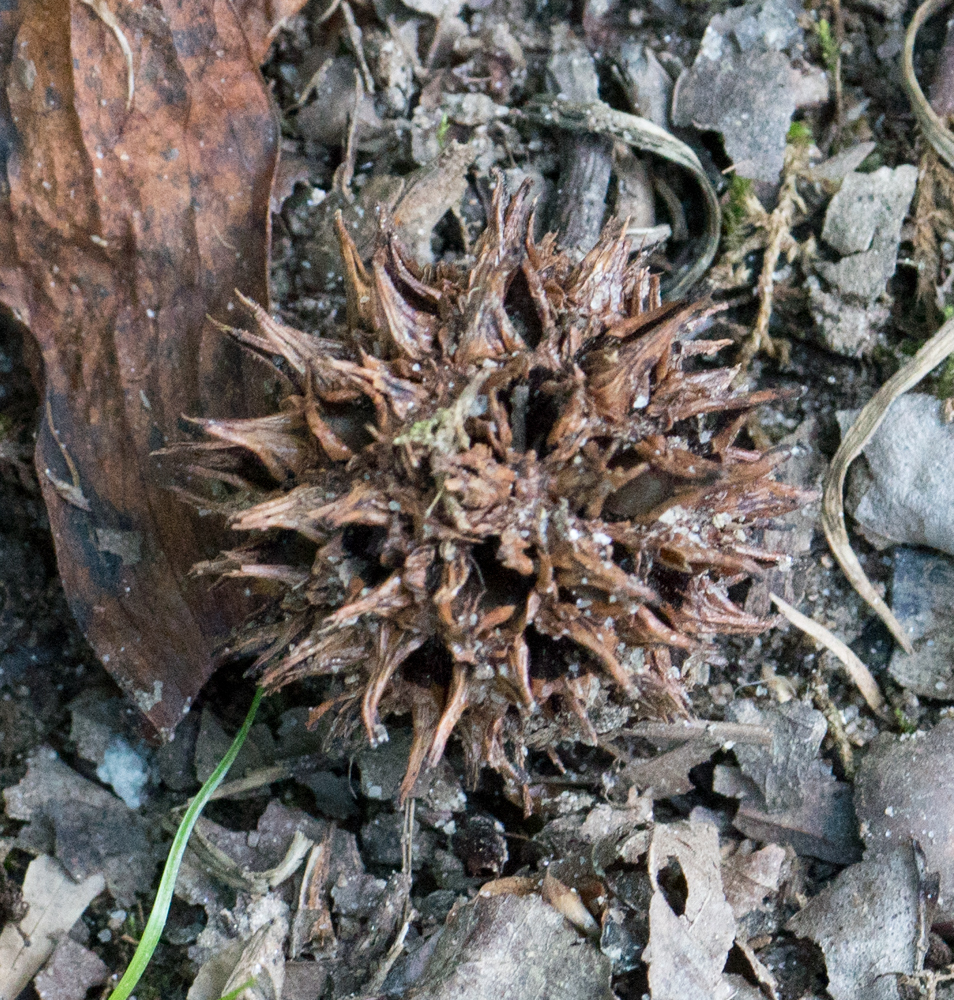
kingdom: Plantae
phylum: Tracheophyta
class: Magnoliopsida
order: Saxifragales
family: Altingiaceae
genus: Liquidambar
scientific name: Liquidambar styraciflua
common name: Sweet gum
